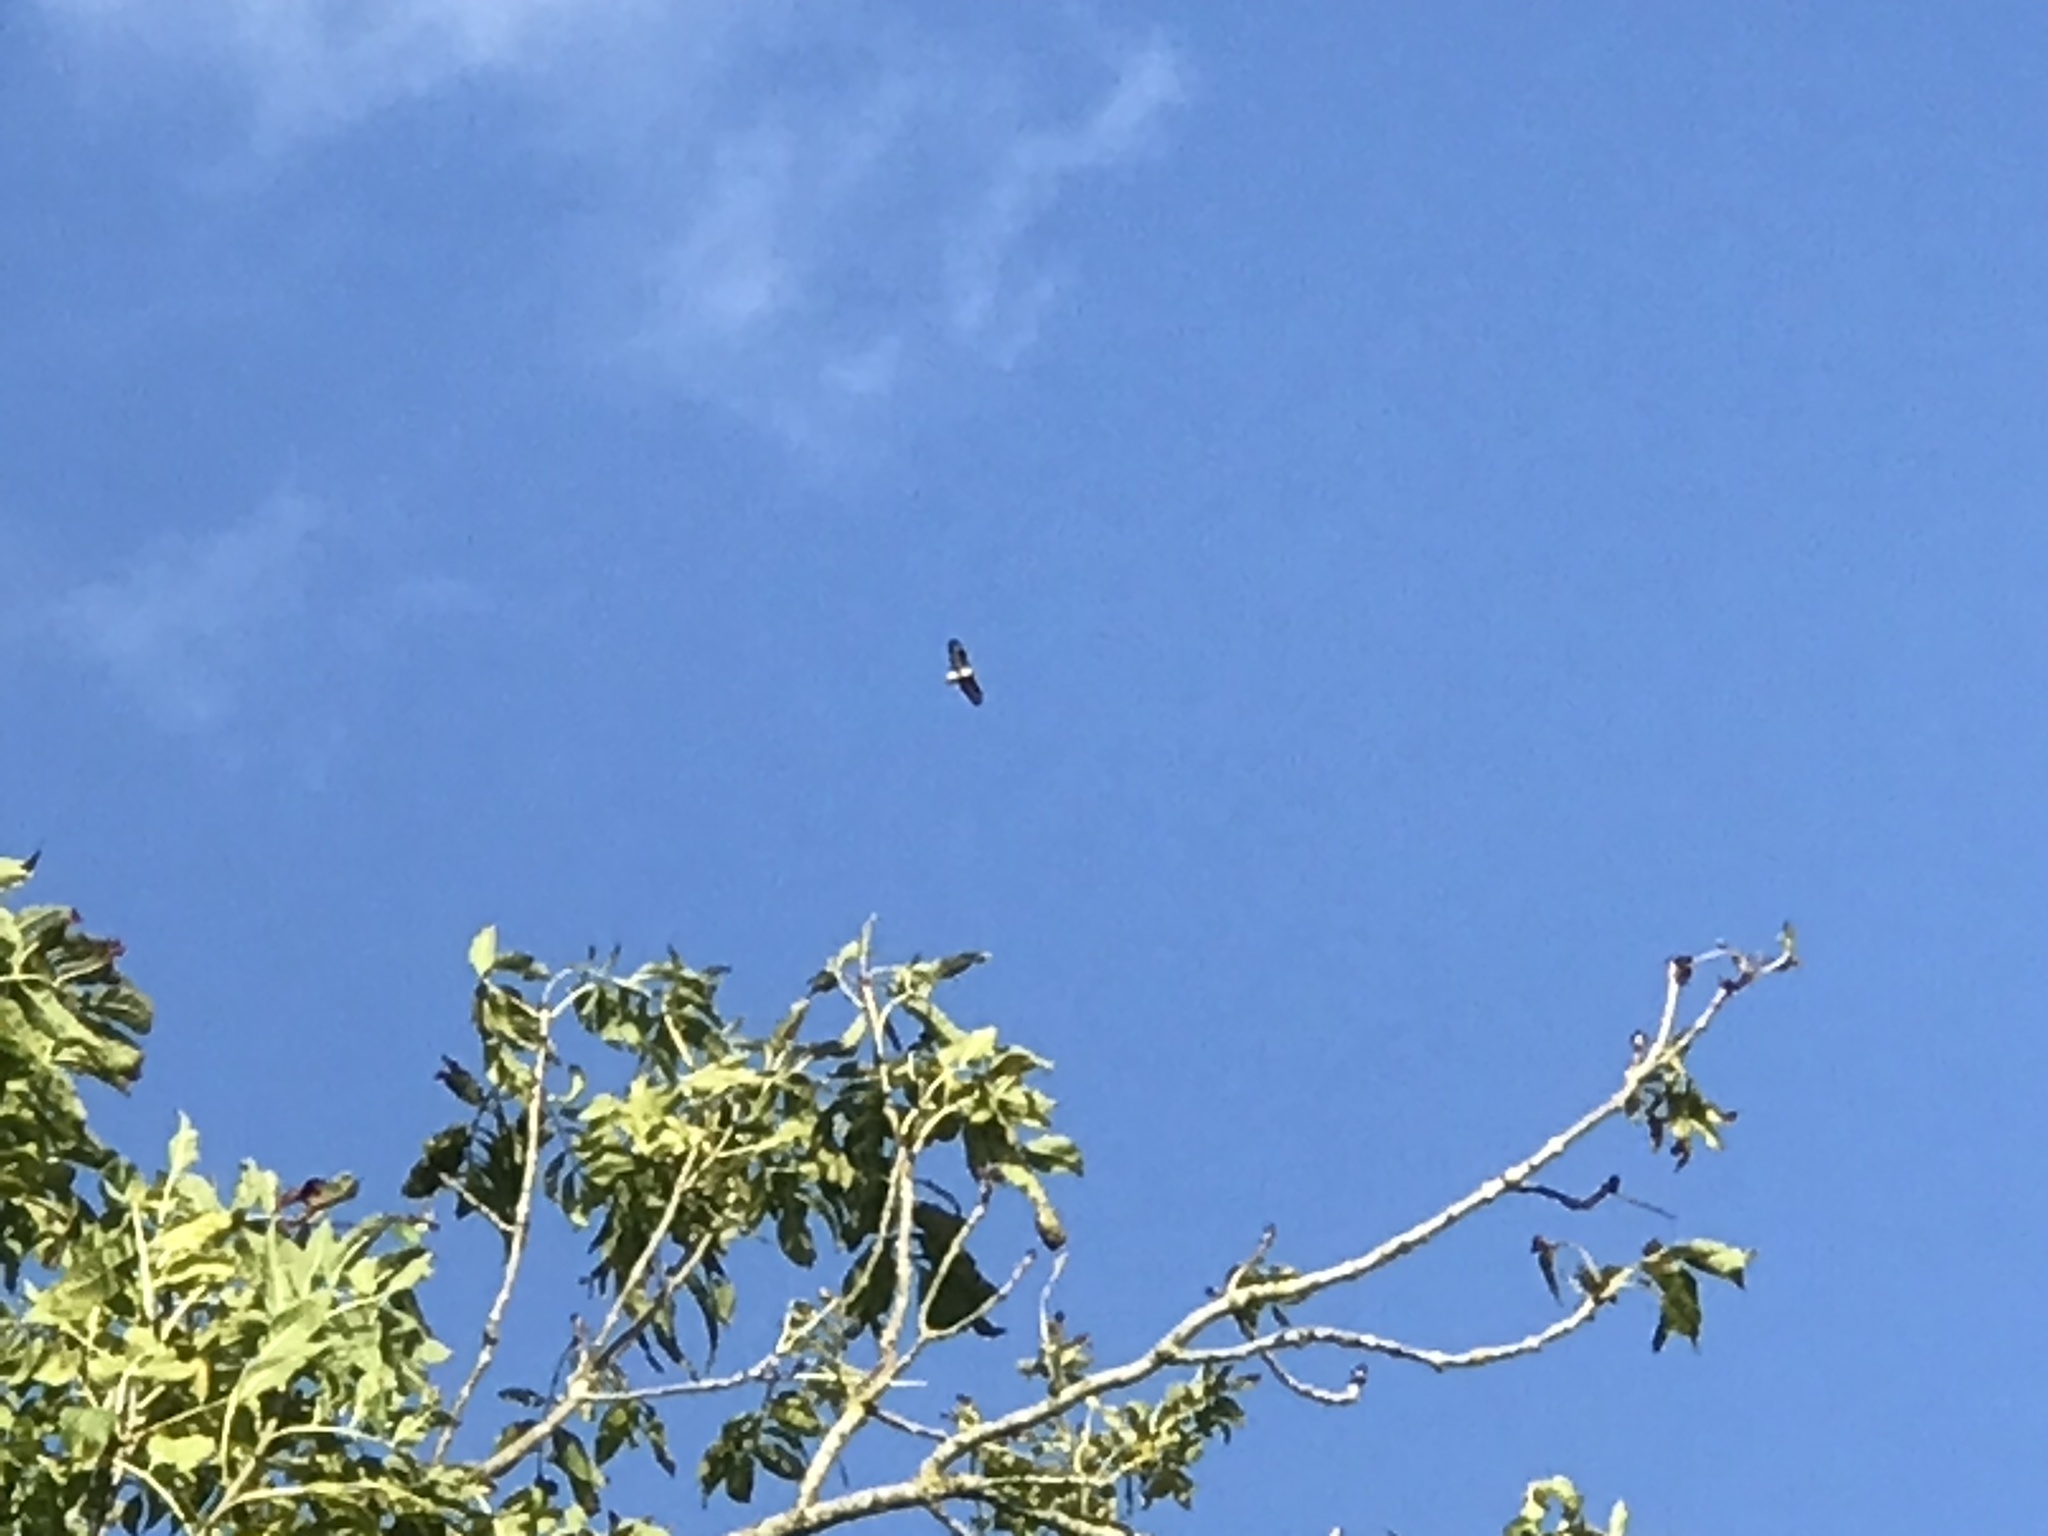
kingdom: Animalia
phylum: Chordata
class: Aves
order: Accipitriformes
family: Accipitridae
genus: Buteo
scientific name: Buteo buteo
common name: Common buzzard
